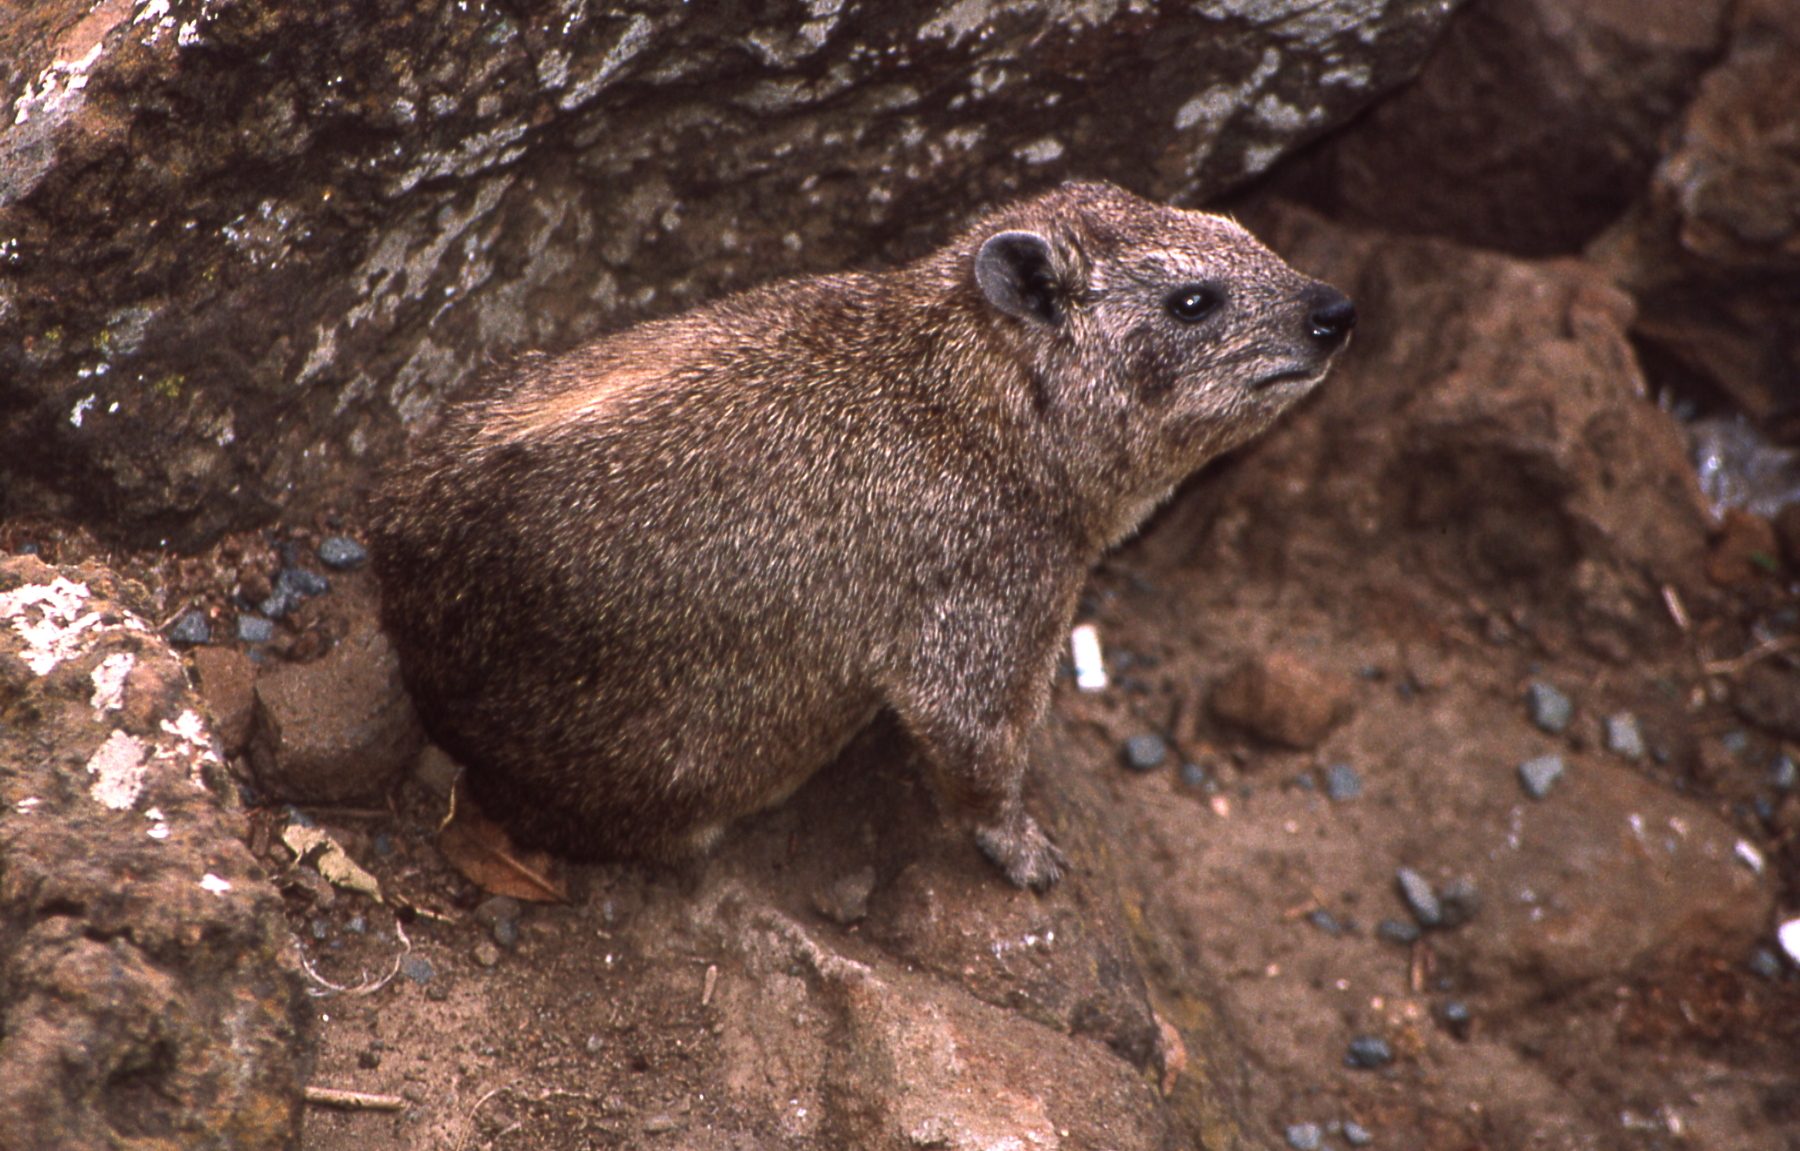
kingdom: Animalia
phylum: Chordata
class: Mammalia
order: Hyracoidea
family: Procaviidae
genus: Procavia
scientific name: Procavia capensis
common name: Rock hyrax
